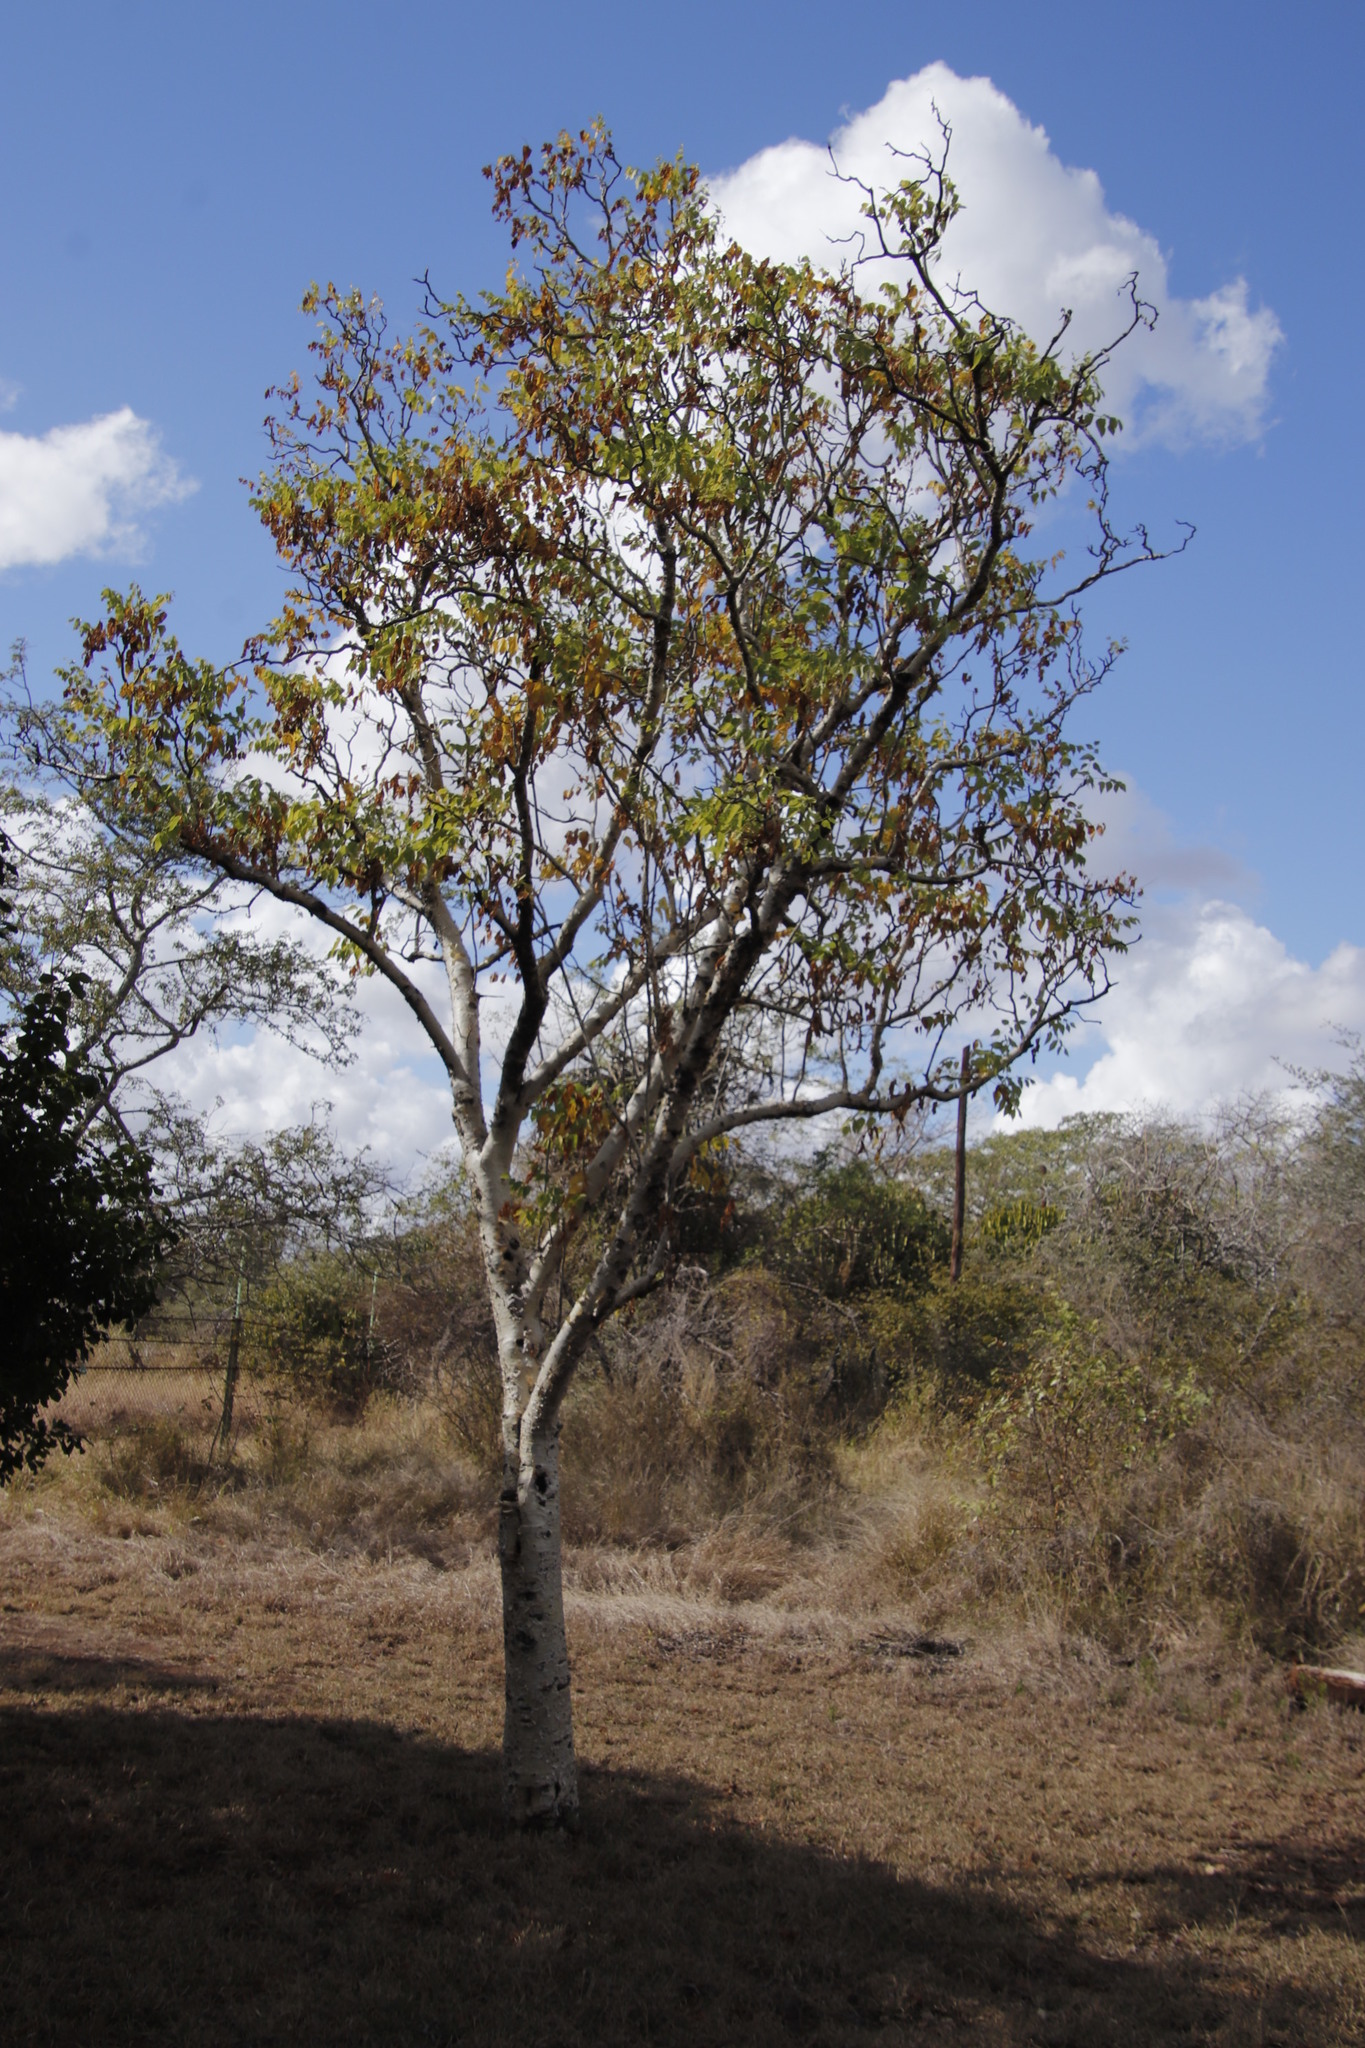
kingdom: Plantae
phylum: Tracheophyta
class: Magnoliopsida
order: Apiales
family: Apiaceae
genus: Steganotaenia
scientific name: Steganotaenia araliacea
